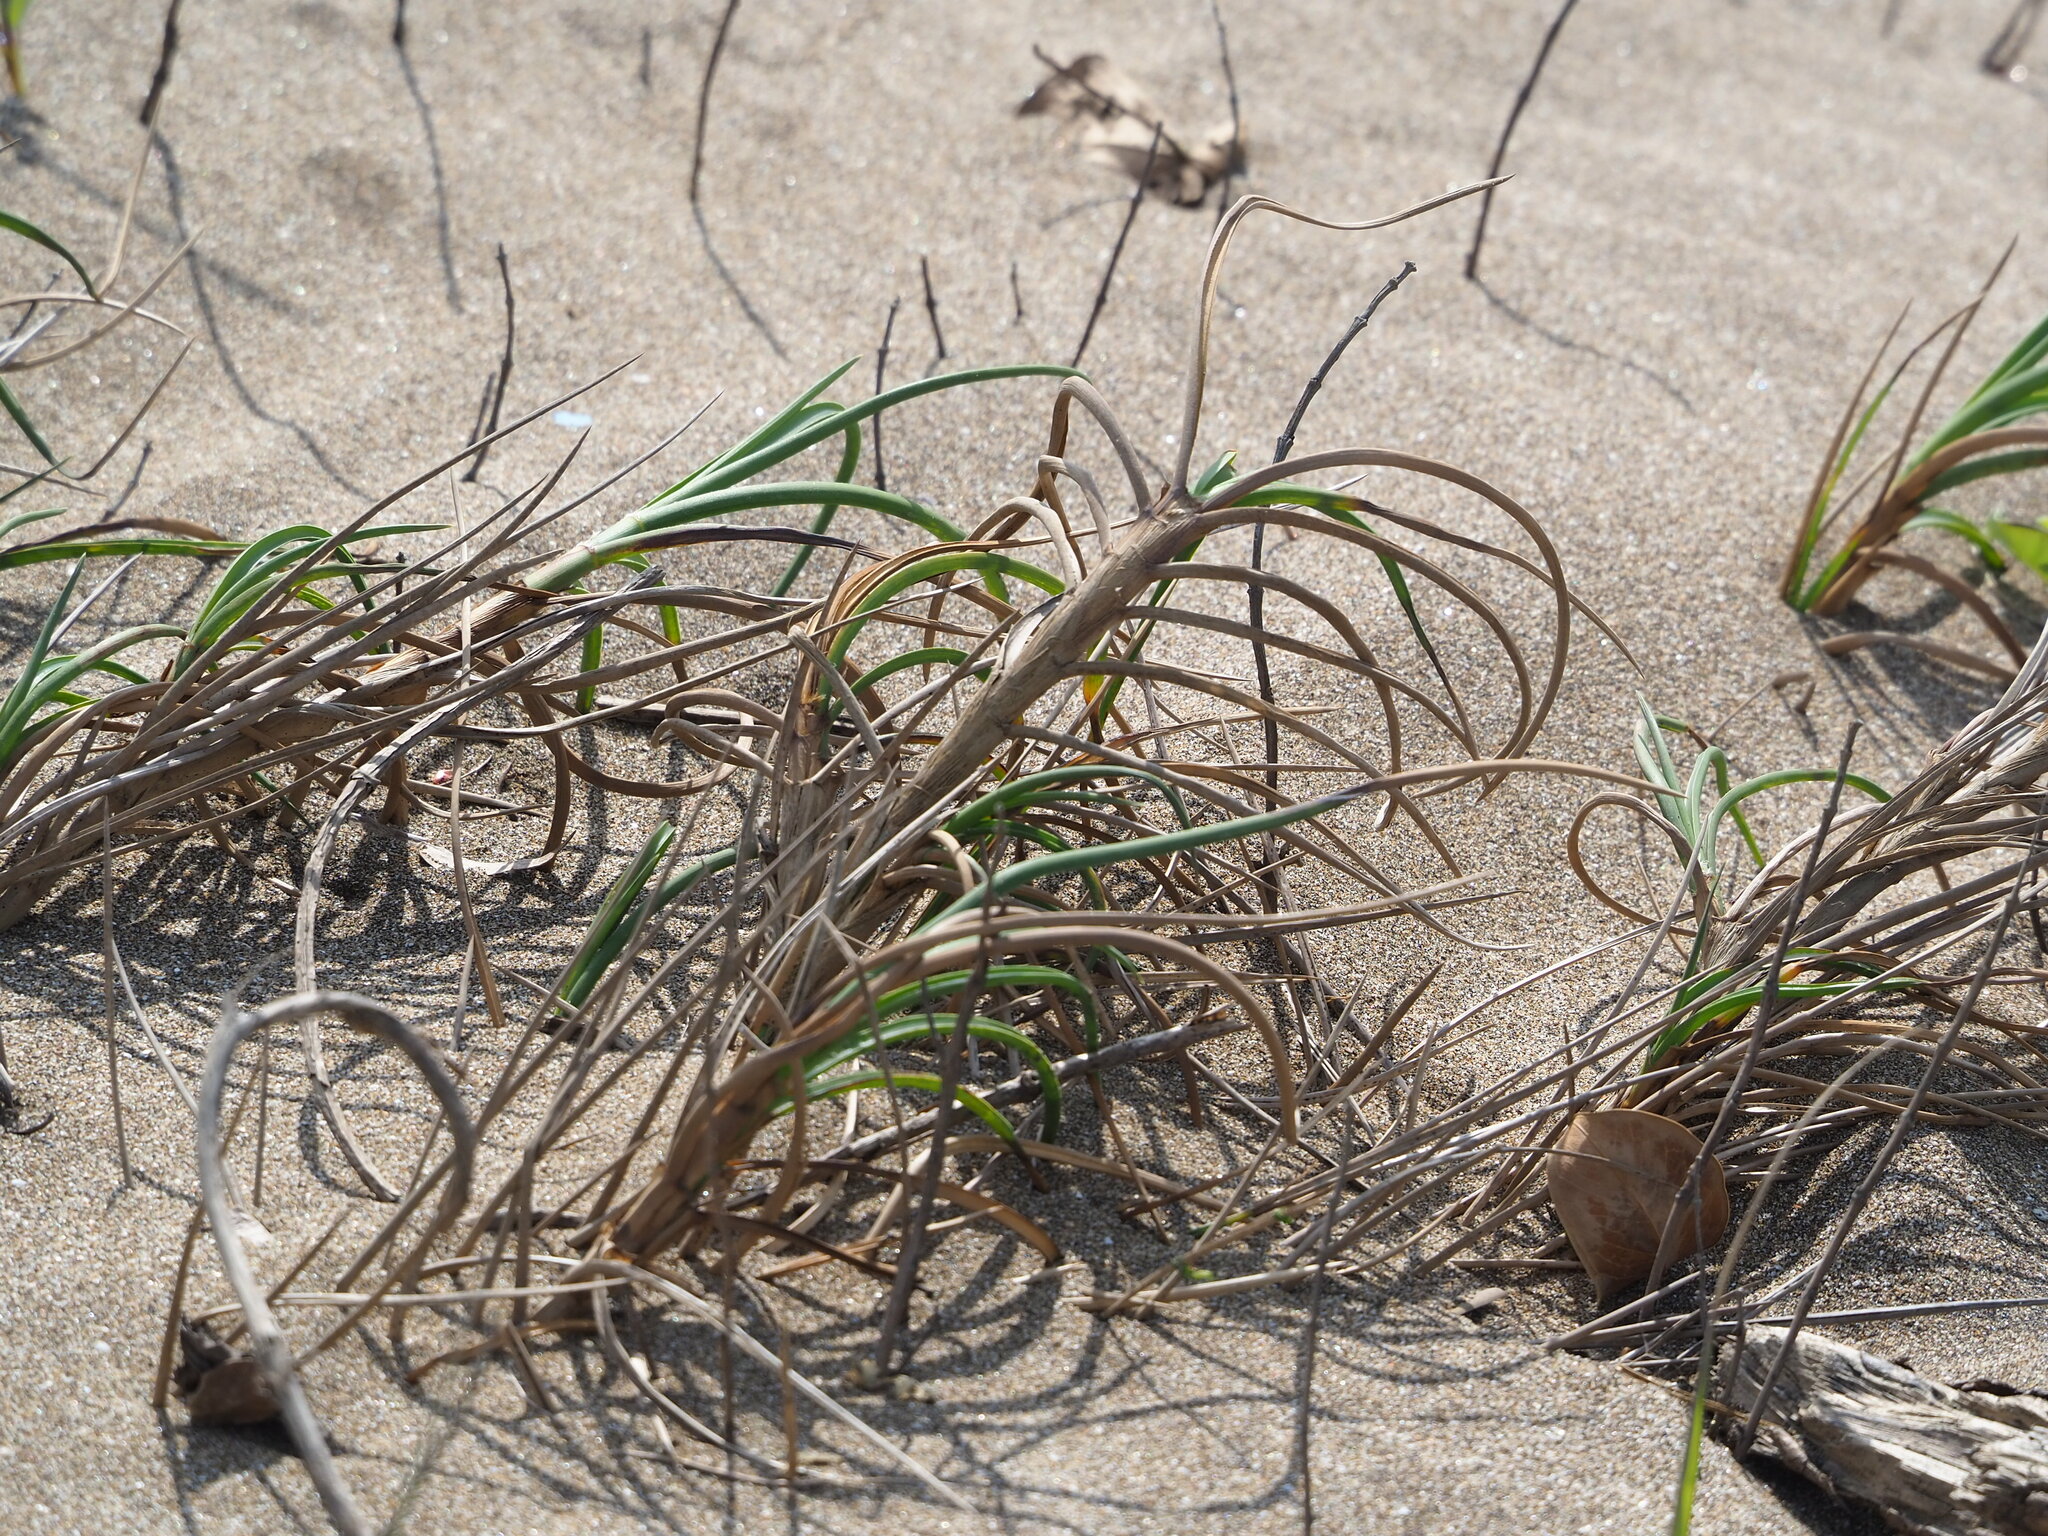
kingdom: Plantae
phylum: Tracheophyta
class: Liliopsida
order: Poales
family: Poaceae
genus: Spinifex
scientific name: Spinifex littoreus
